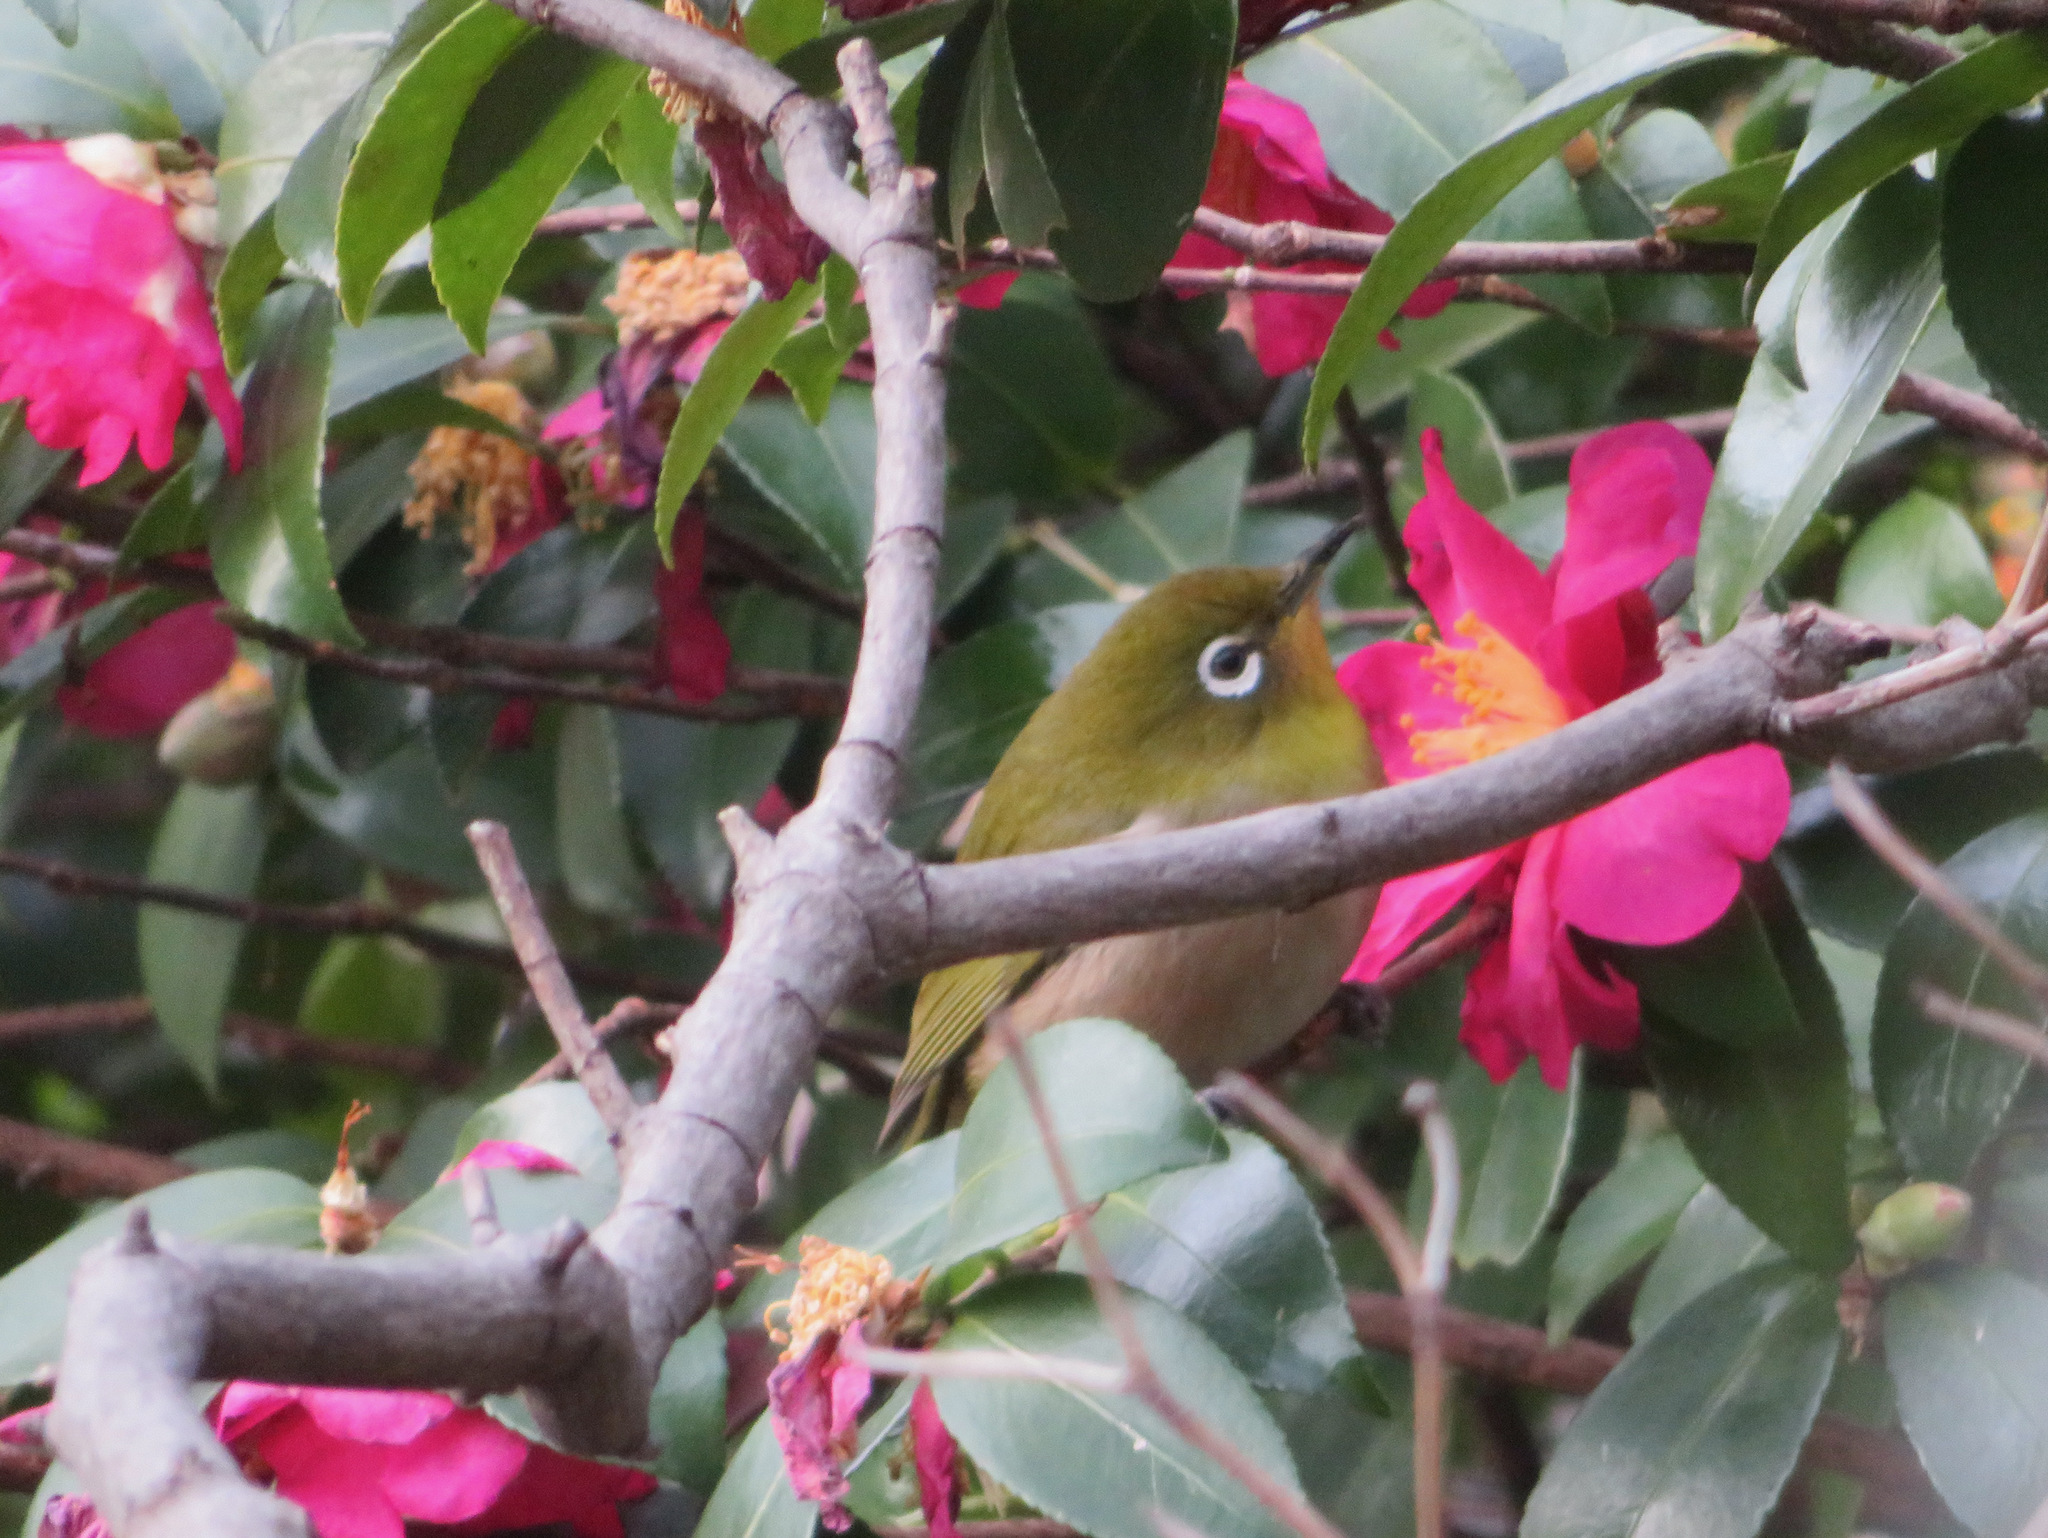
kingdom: Animalia
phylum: Chordata
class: Aves
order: Passeriformes
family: Zosteropidae
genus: Zosterops
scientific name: Zosterops japonicus
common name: Japanese white-eye
